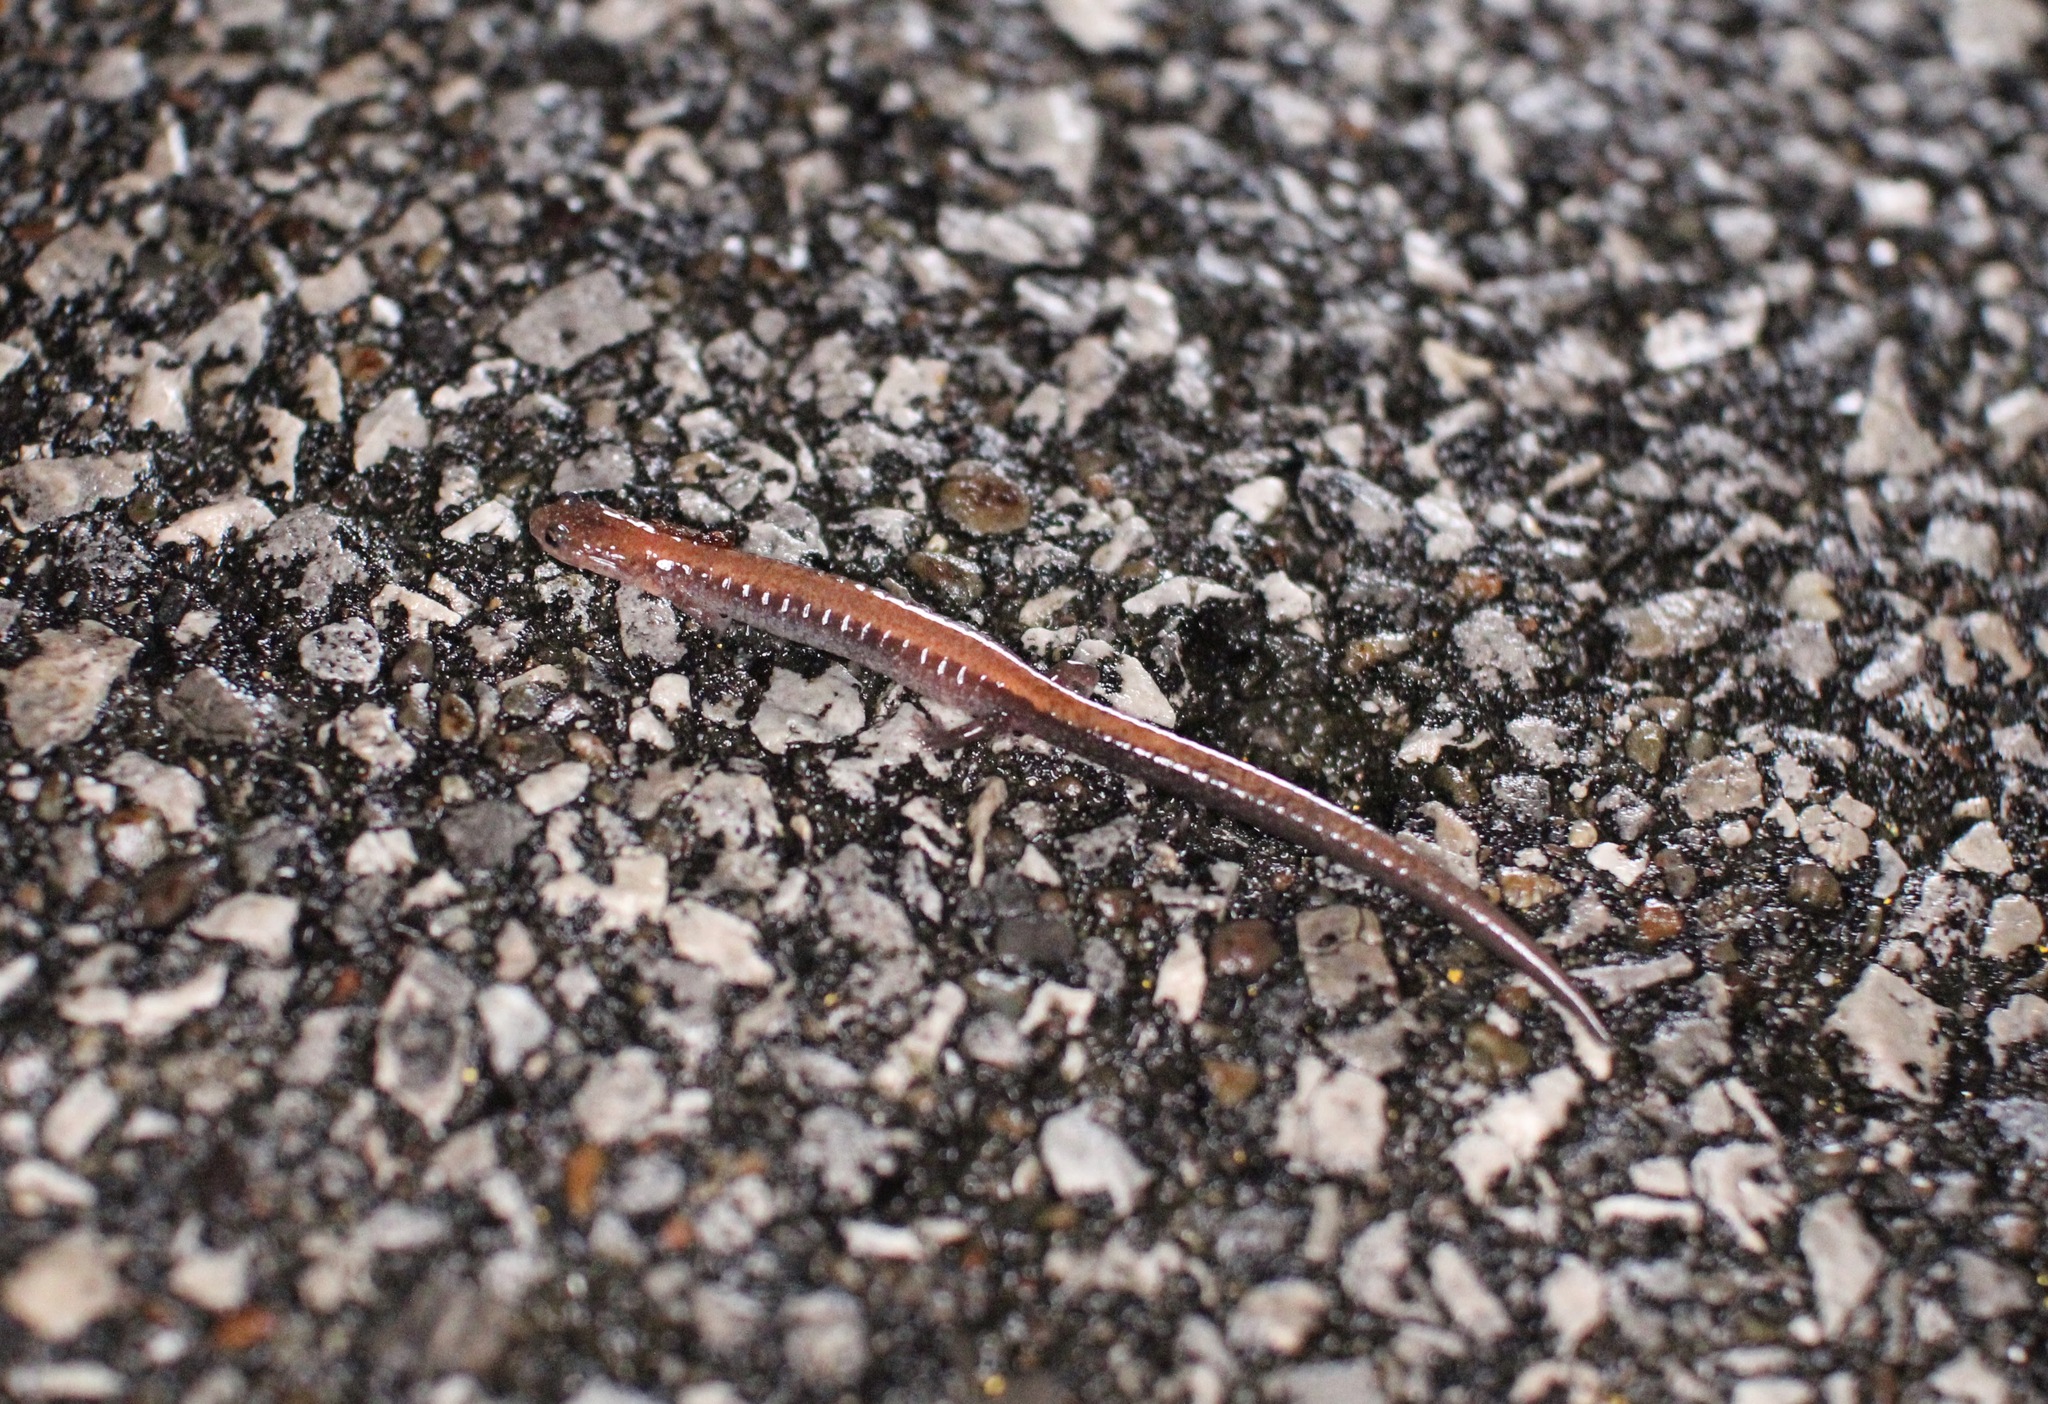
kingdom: Animalia
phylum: Chordata
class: Amphibia
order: Caudata
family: Plethodontidae
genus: Plethodon
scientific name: Plethodon cinereus
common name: Redback salamander
